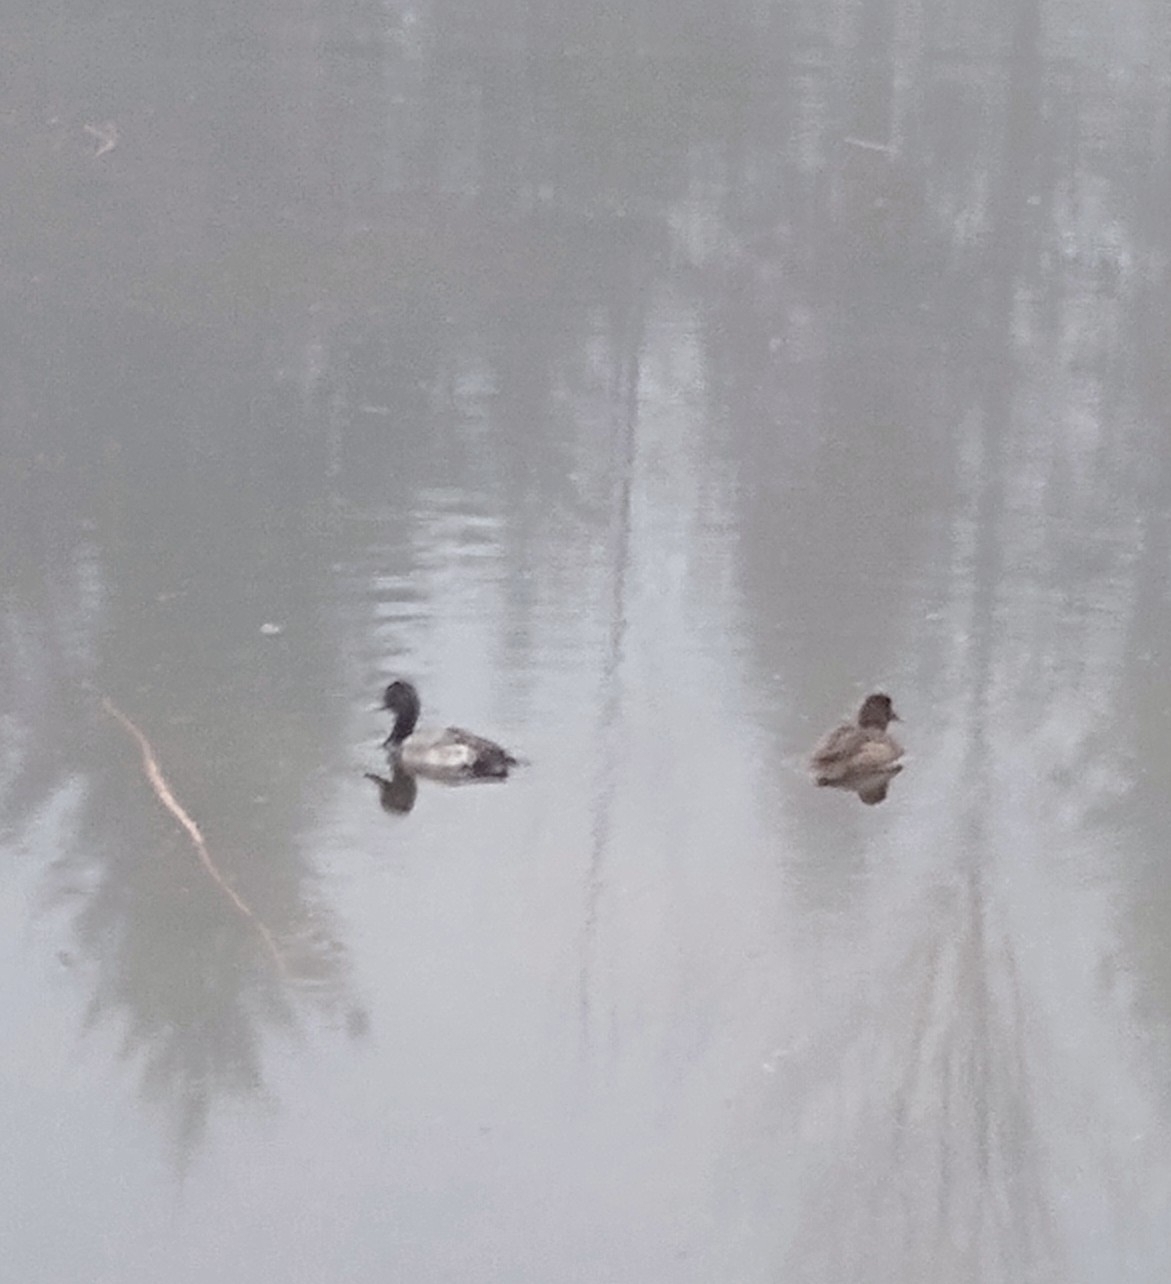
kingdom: Animalia
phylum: Chordata
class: Aves
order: Anseriformes
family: Anatidae
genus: Aythya
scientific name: Aythya affinis
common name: Lesser scaup
